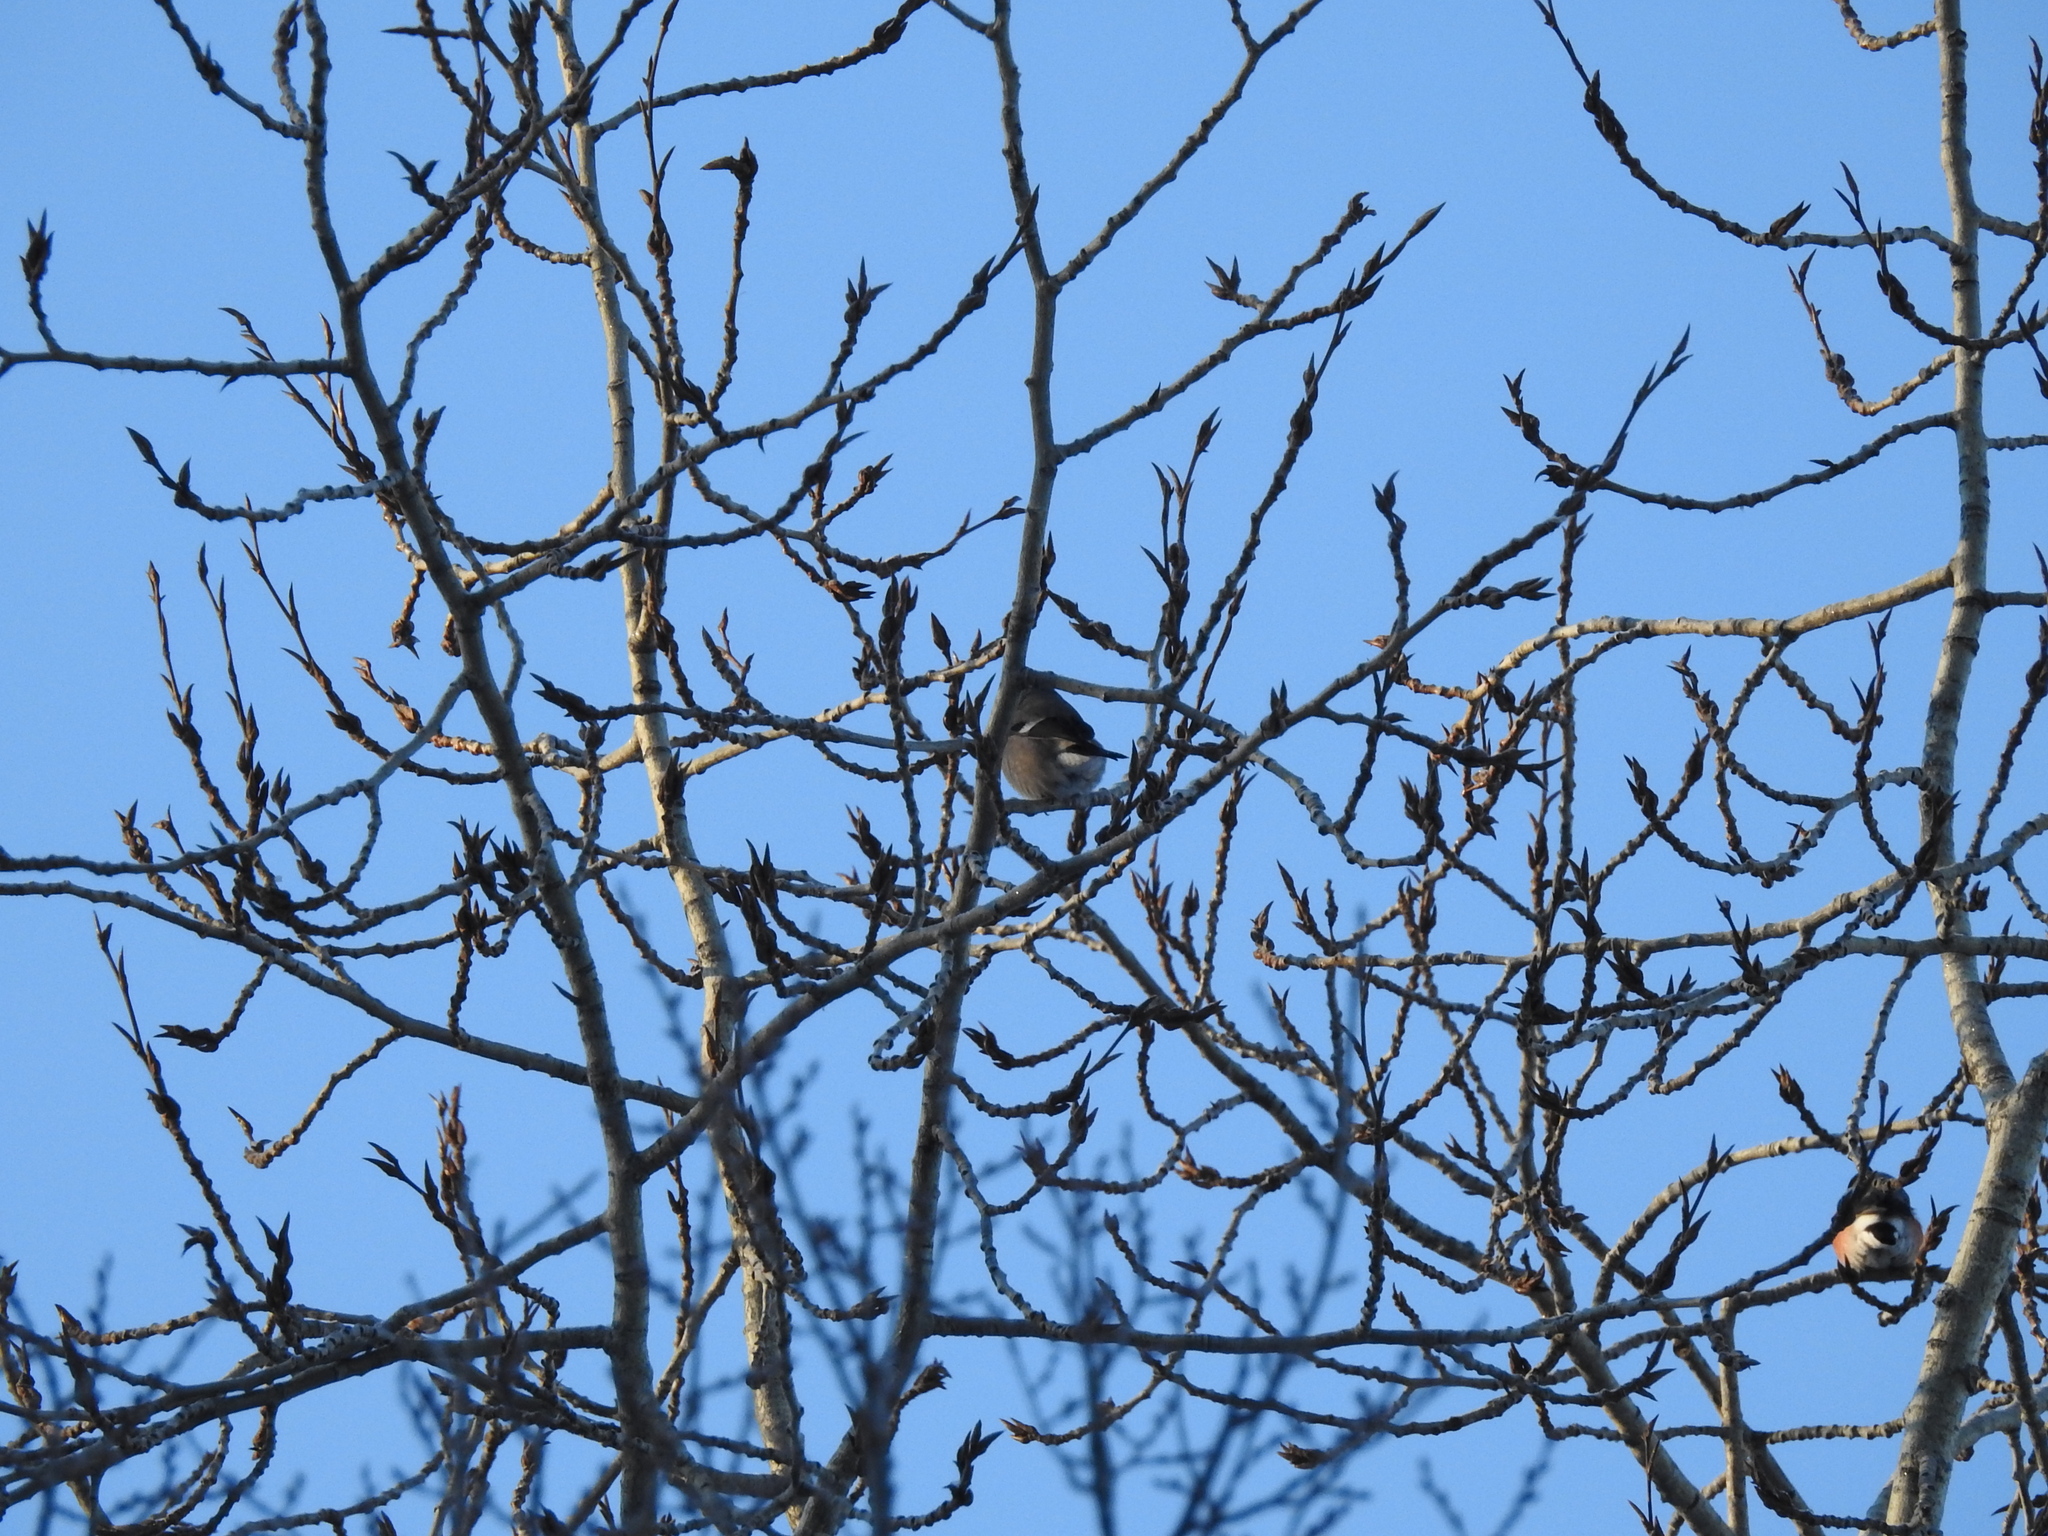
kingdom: Animalia
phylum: Chordata
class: Aves
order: Passeriformes
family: Fringillidae
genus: Pyrrhula
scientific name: Pyrrhula pyrrhula
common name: Eurasian bullfinch
